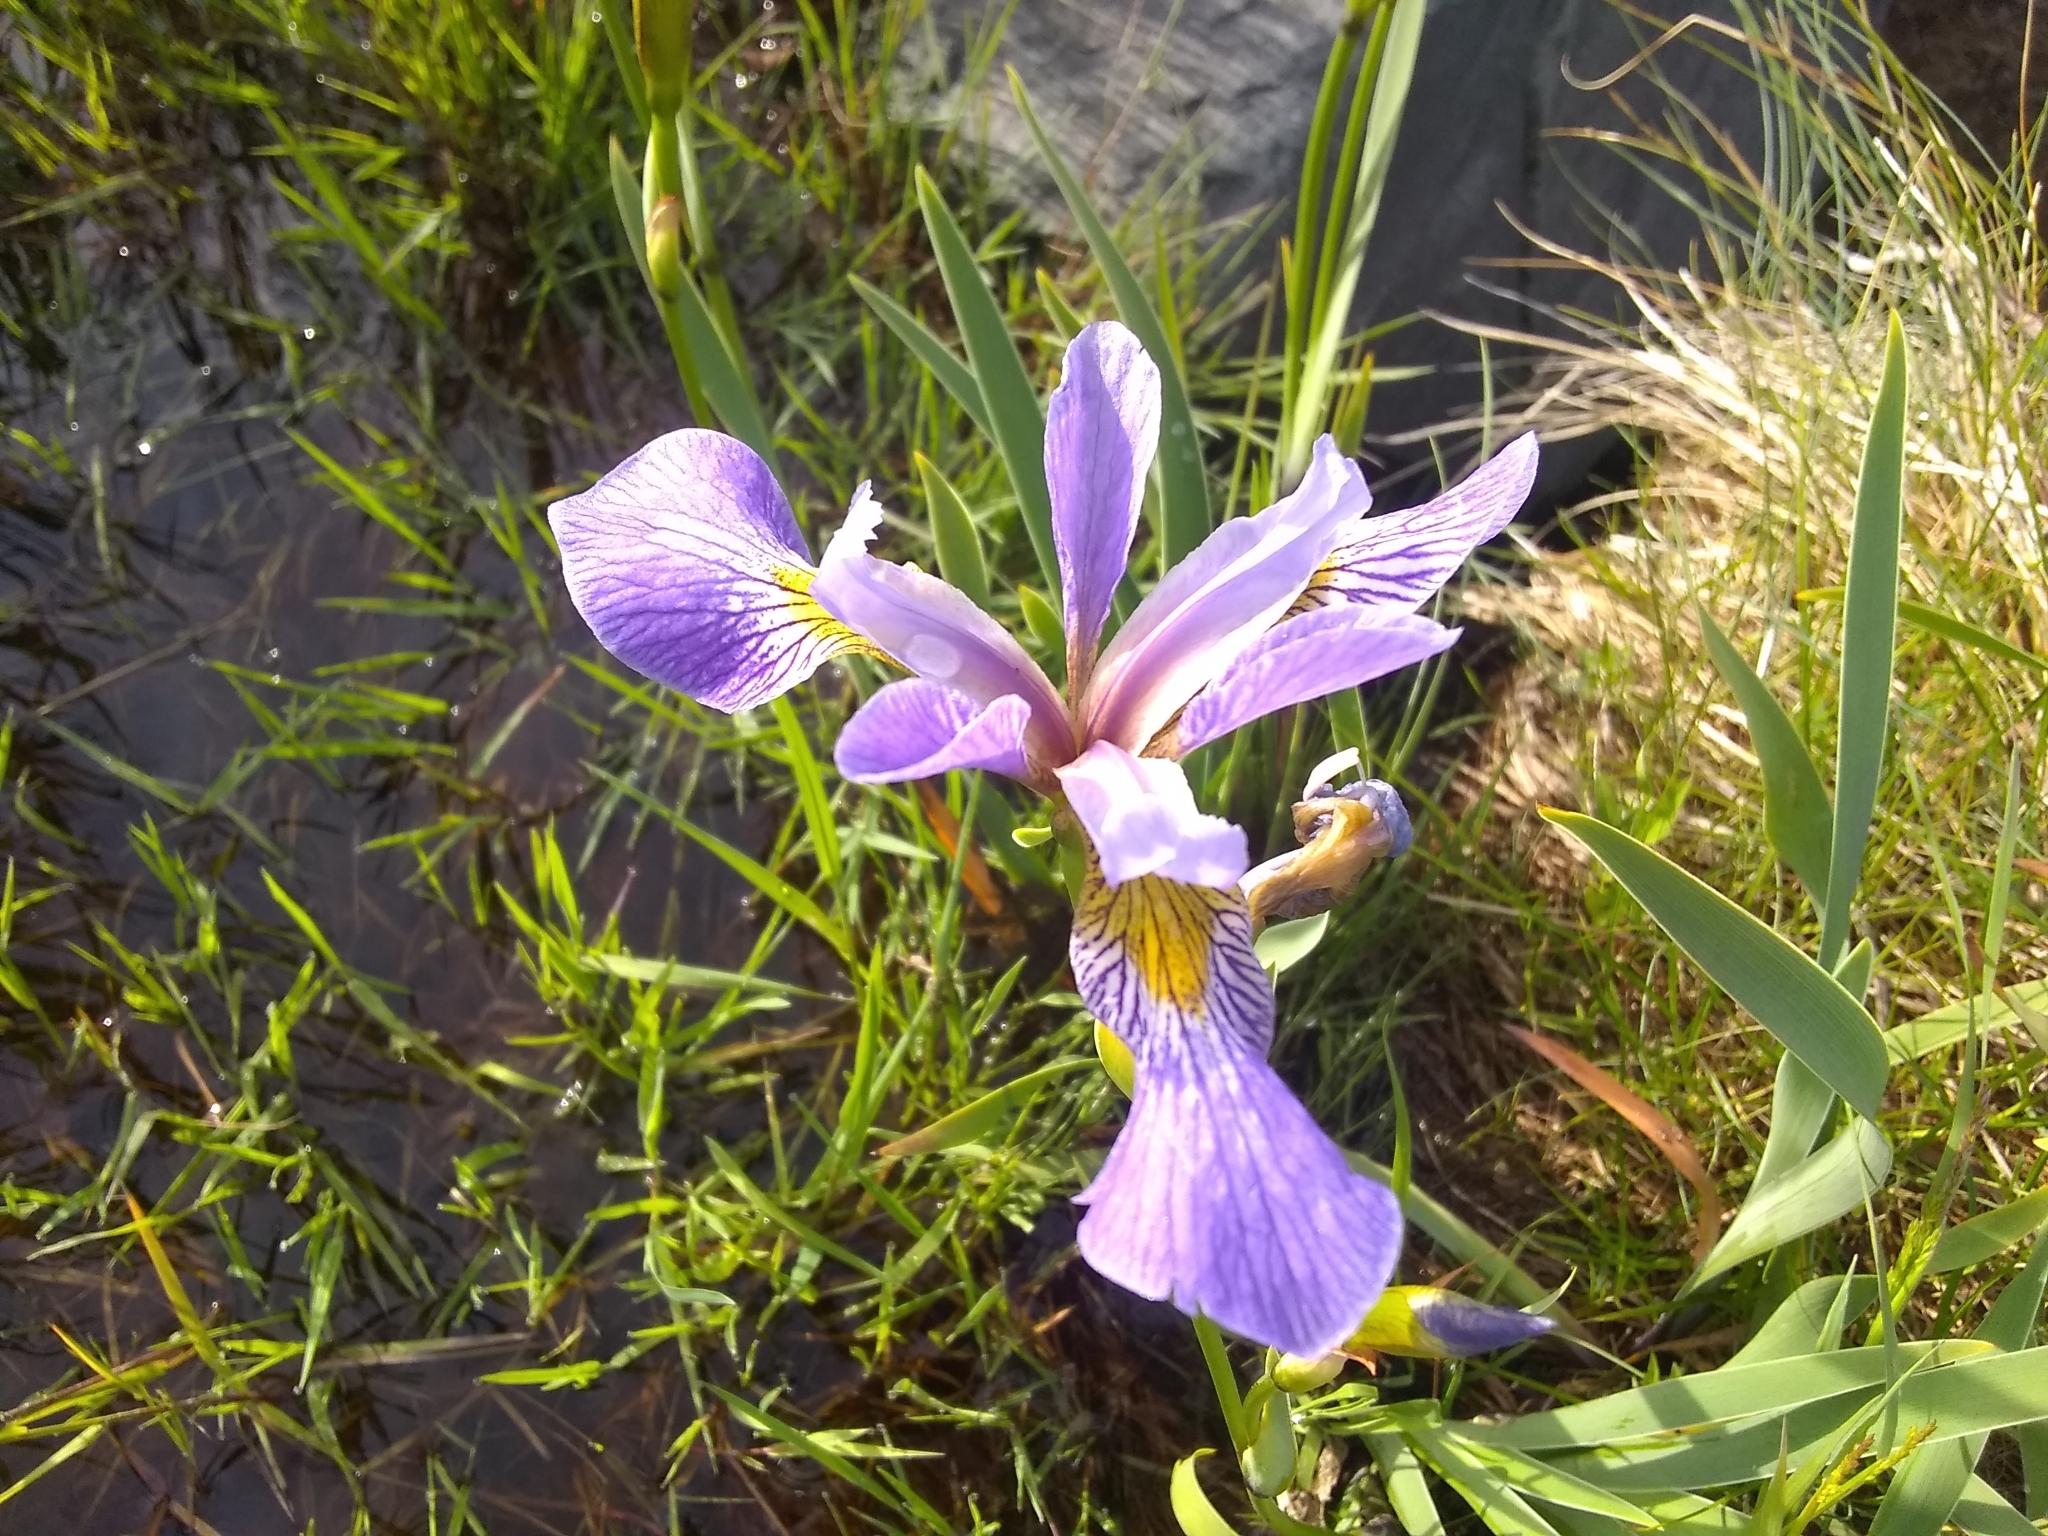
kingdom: Plantae
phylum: Tracheophyta
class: Liliopsida
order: Asparagales
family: Iridaceae
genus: Iris
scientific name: Iris versicolor
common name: Purple iris
